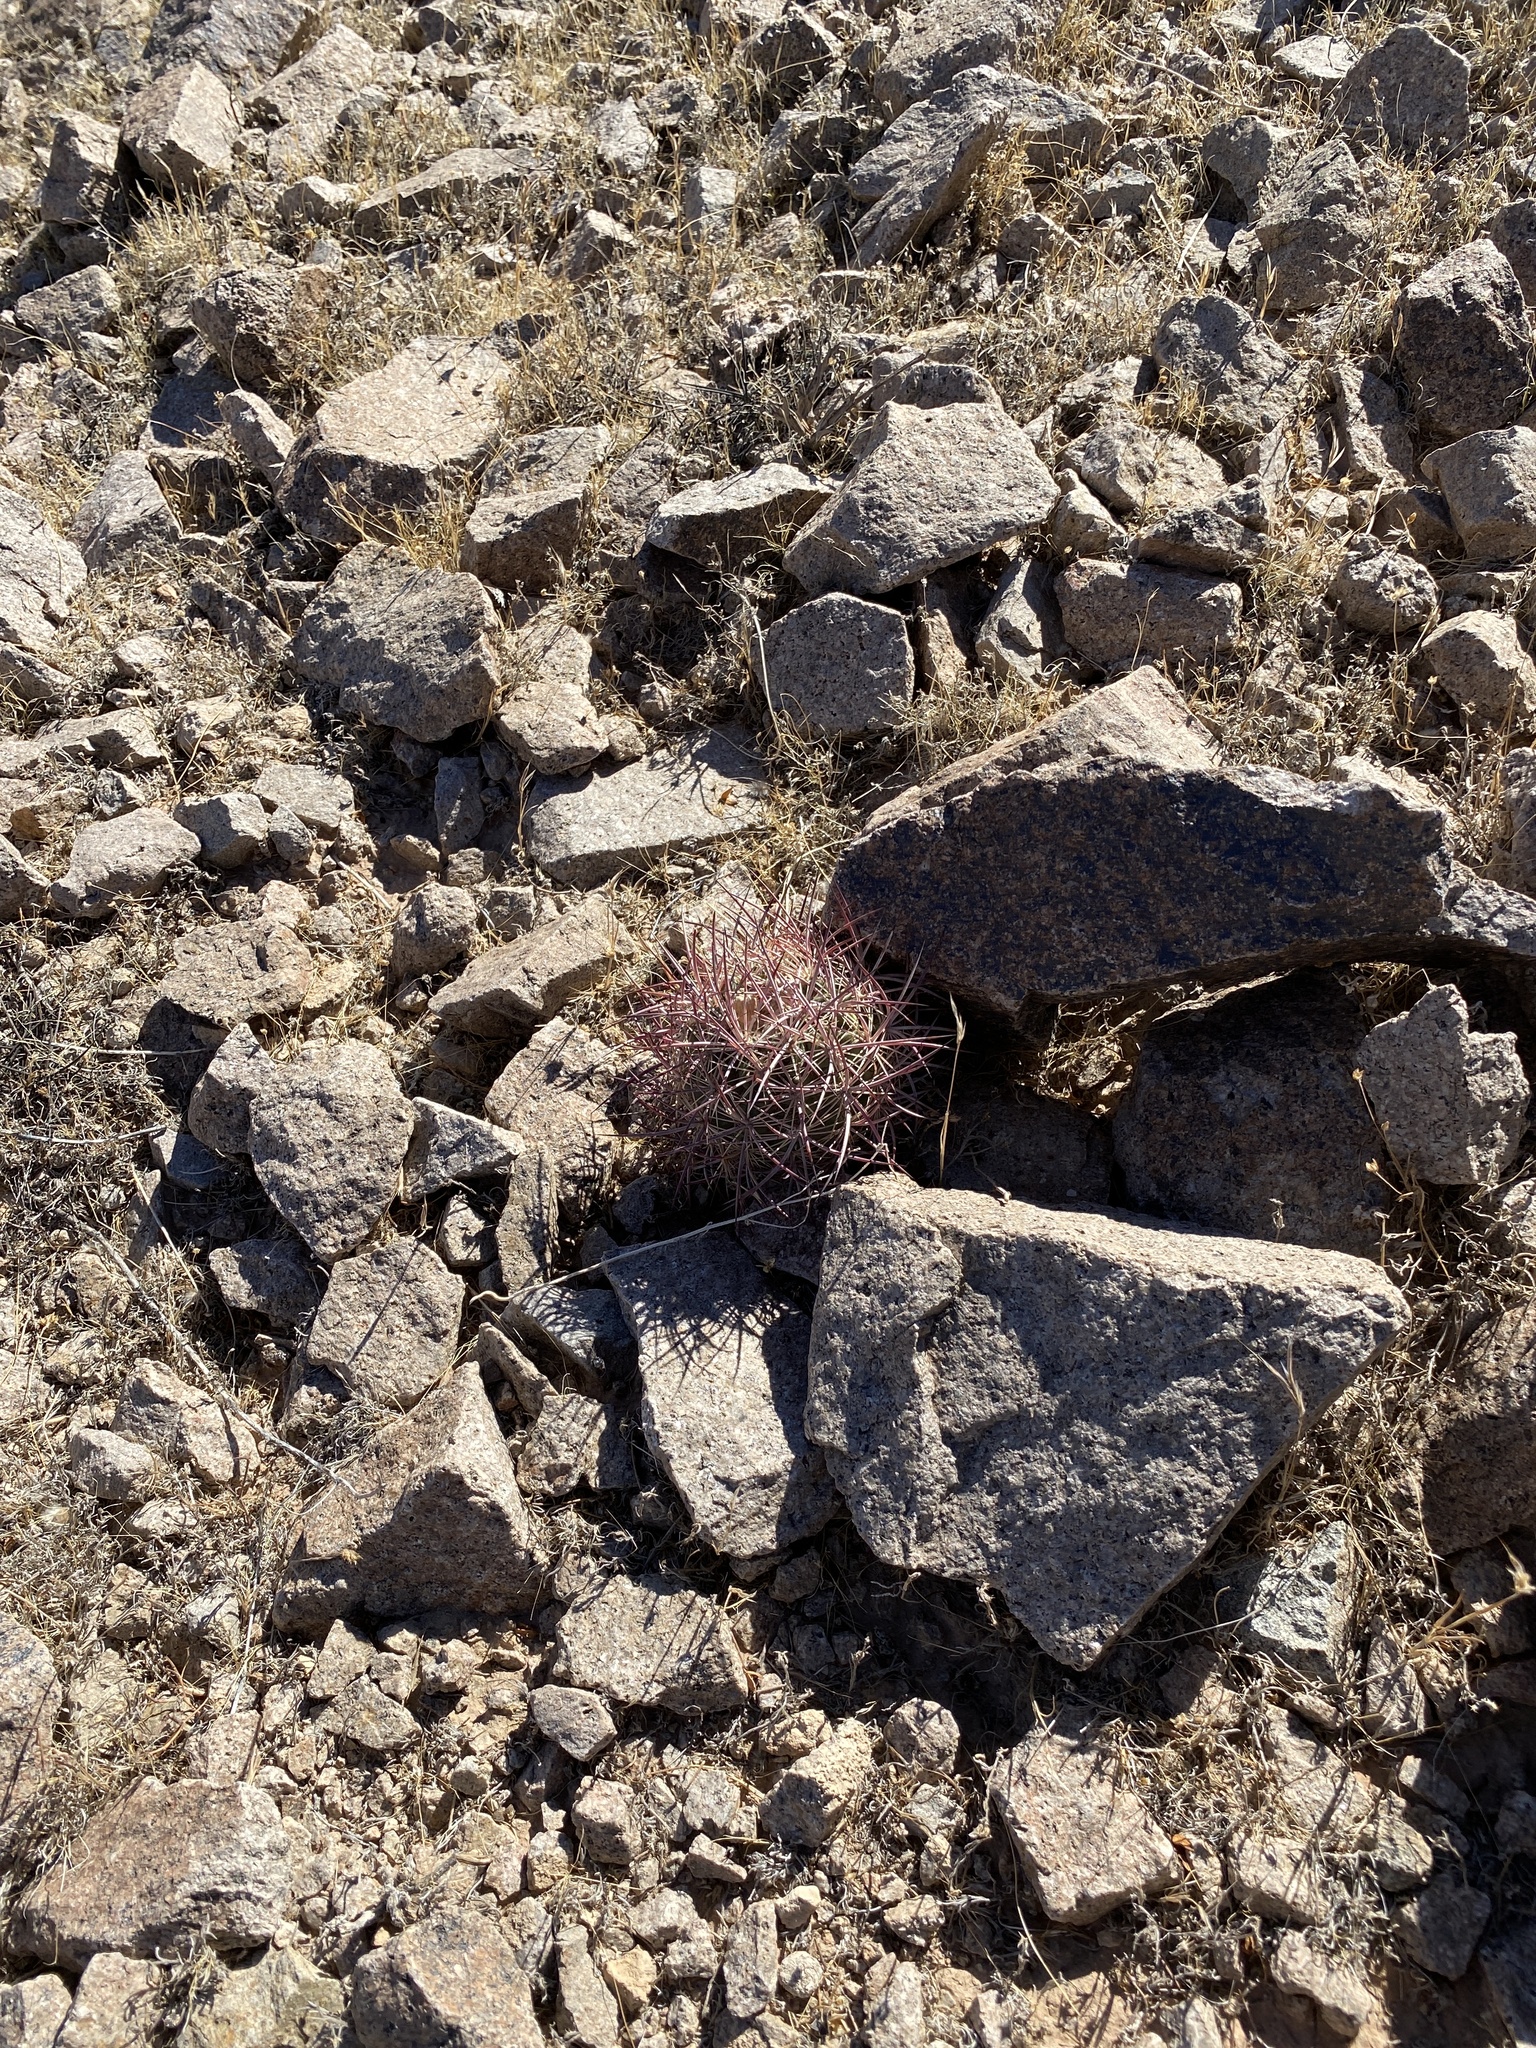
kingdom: Plantae
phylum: Tracheophyta
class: Magnoliopsida
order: Caryophyllales
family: Cactaceae
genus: Sclerocactus
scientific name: Sclerocactus johnsonii
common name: Eight-spine fishhook cactus
